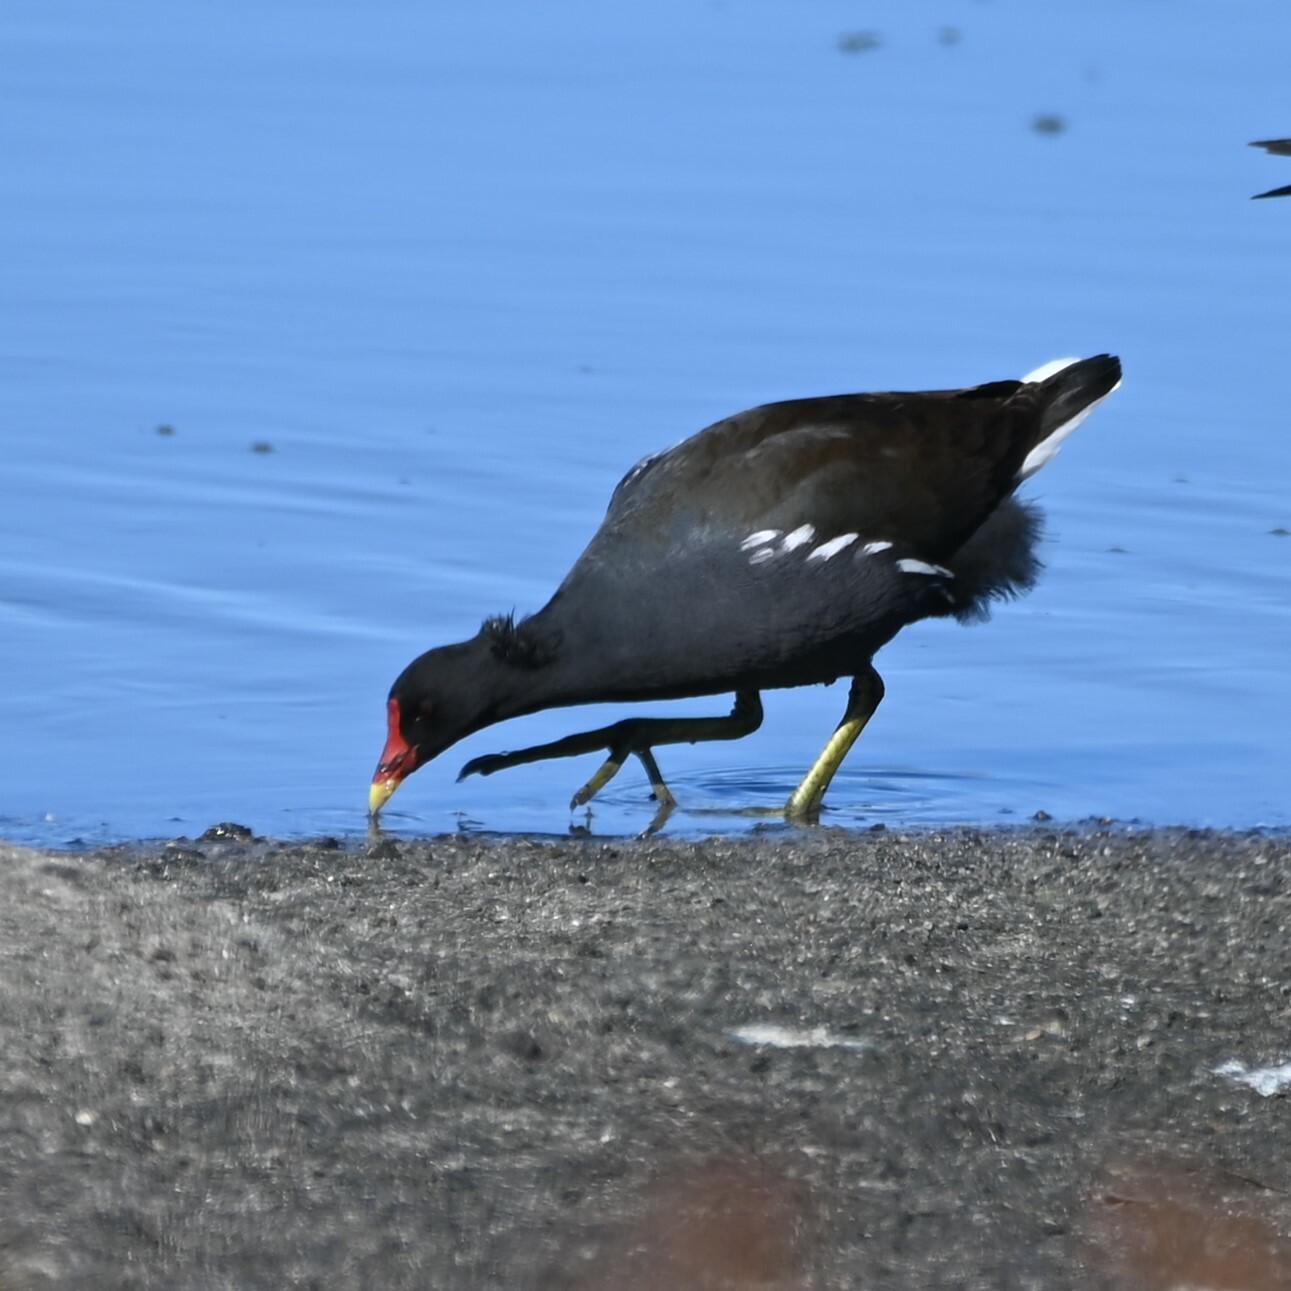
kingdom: Animalia
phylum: Chordata
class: Aves
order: Gruiformes
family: Rallidae
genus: Gallinula
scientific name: Gallinula chloropus
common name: Common moorhen
